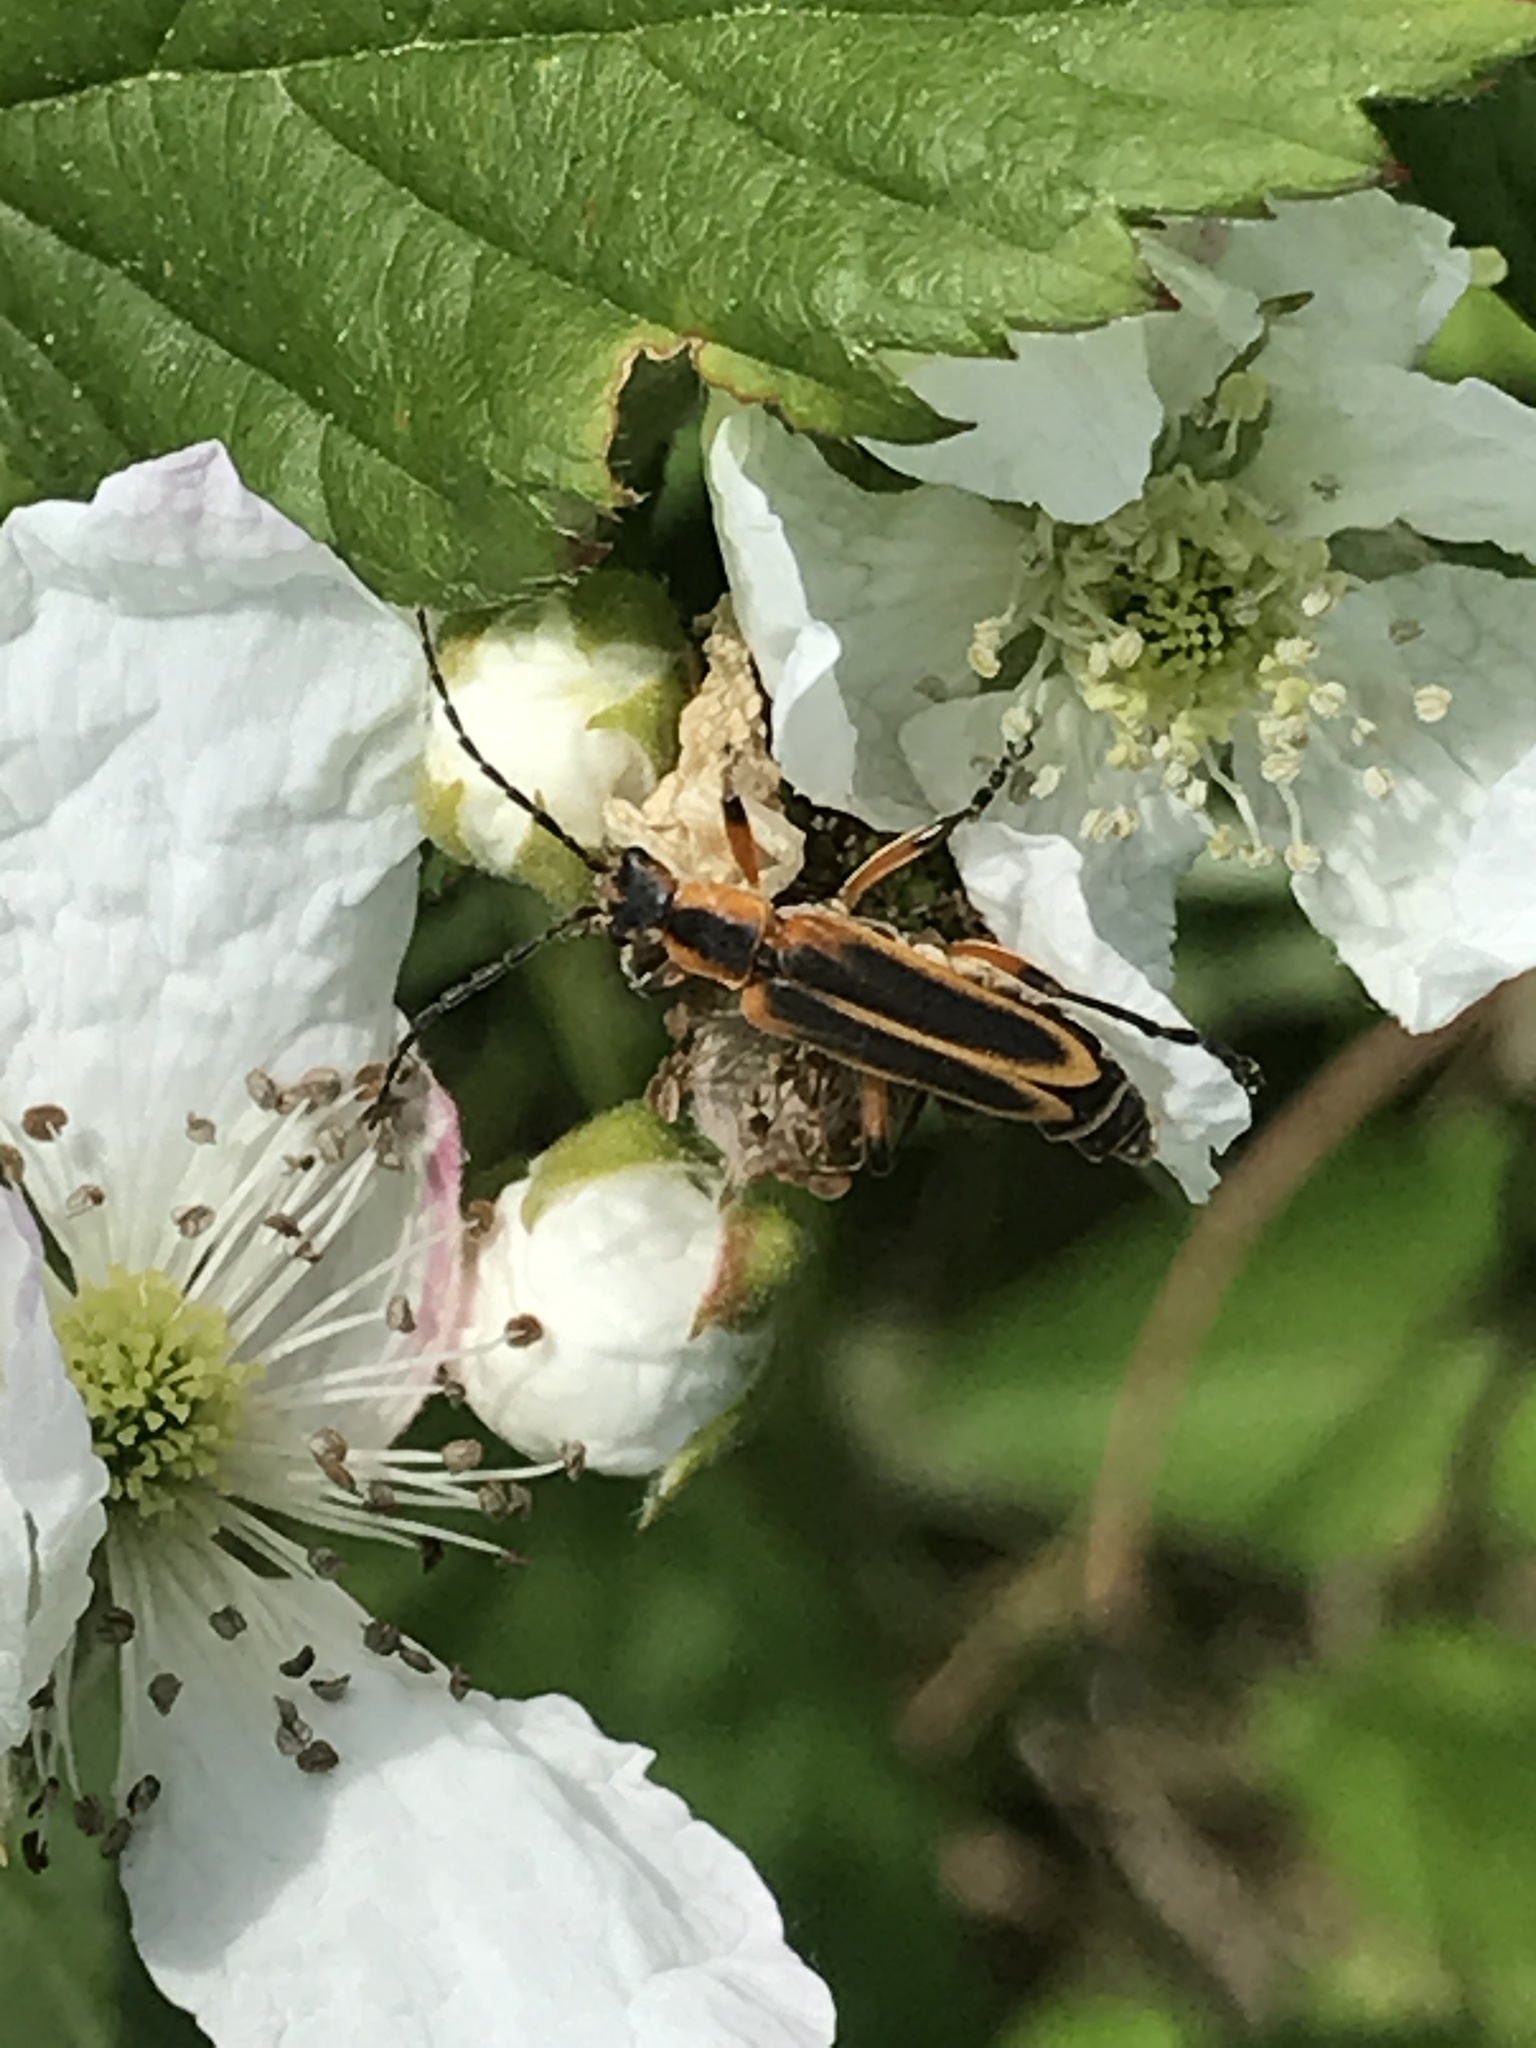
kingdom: Animalia
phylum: Arthropoda
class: Insecta
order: Coleoptera
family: Cantharidae
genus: Chauliognathus
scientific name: Chauliognathus marginatus
